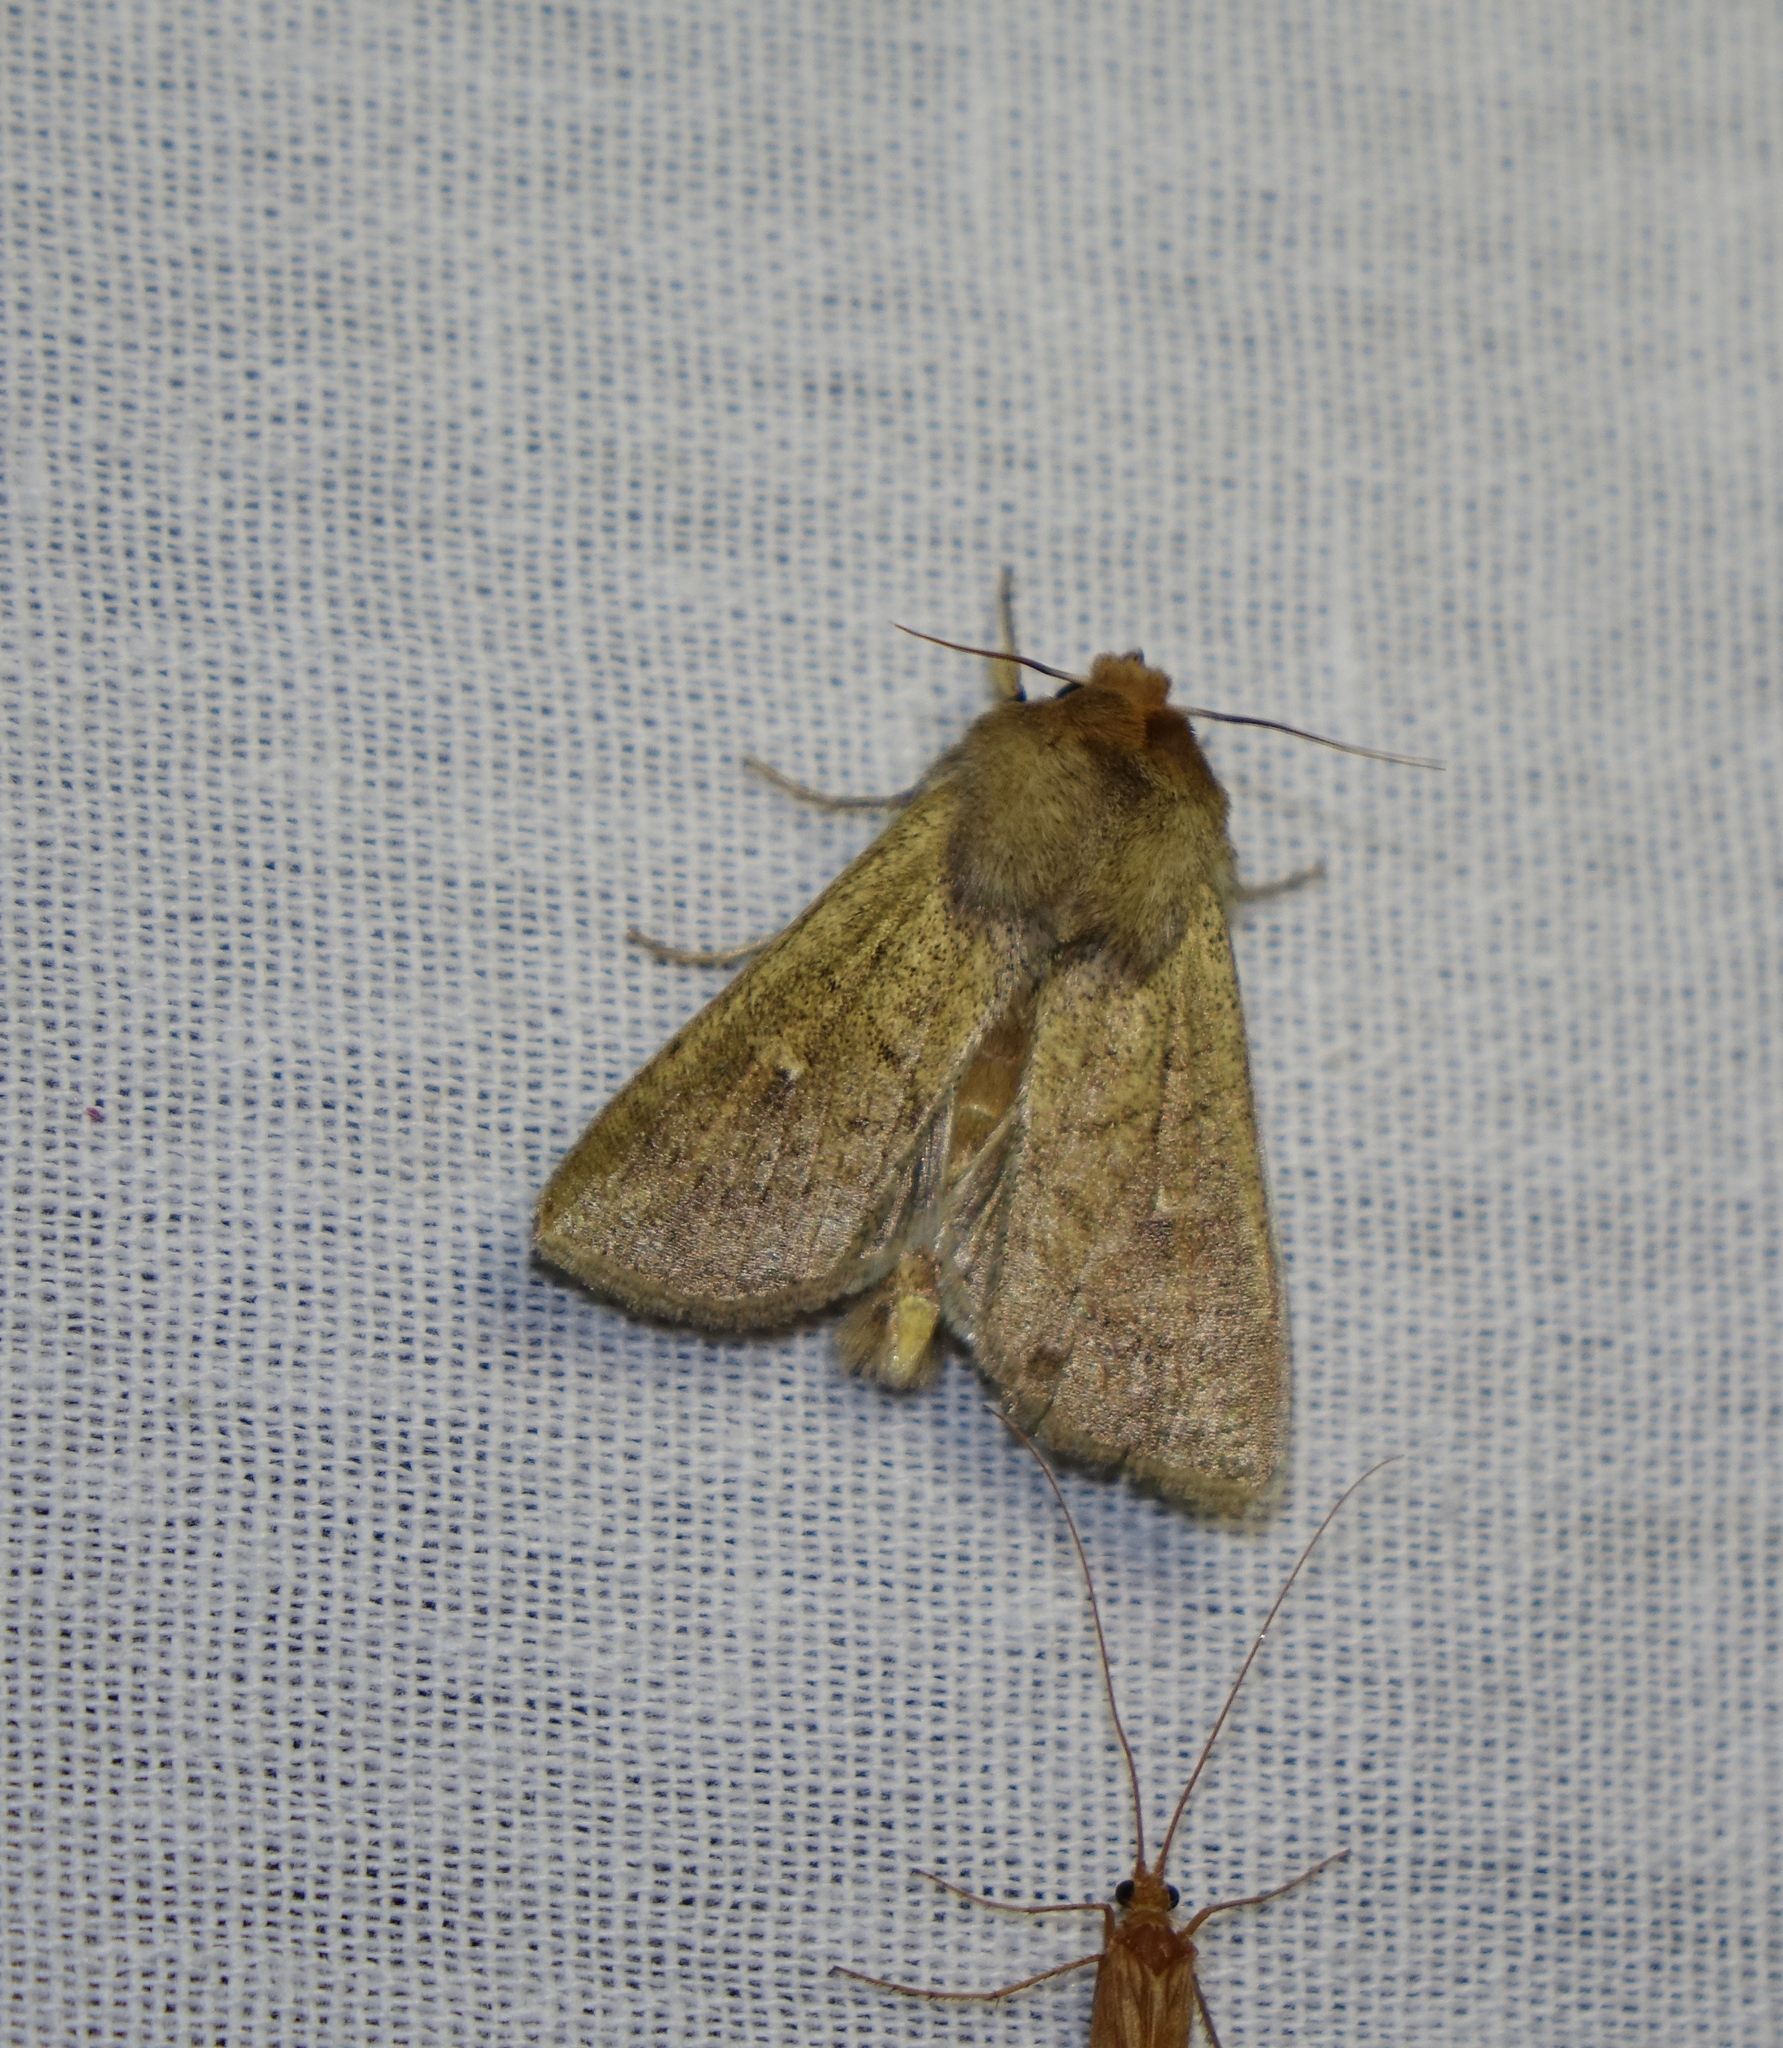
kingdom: Animalia
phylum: Arthropoda
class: Insecta
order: Lepidoptera
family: Noctuidae
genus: Mythimna
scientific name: Mythimna ferrago
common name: Clay
